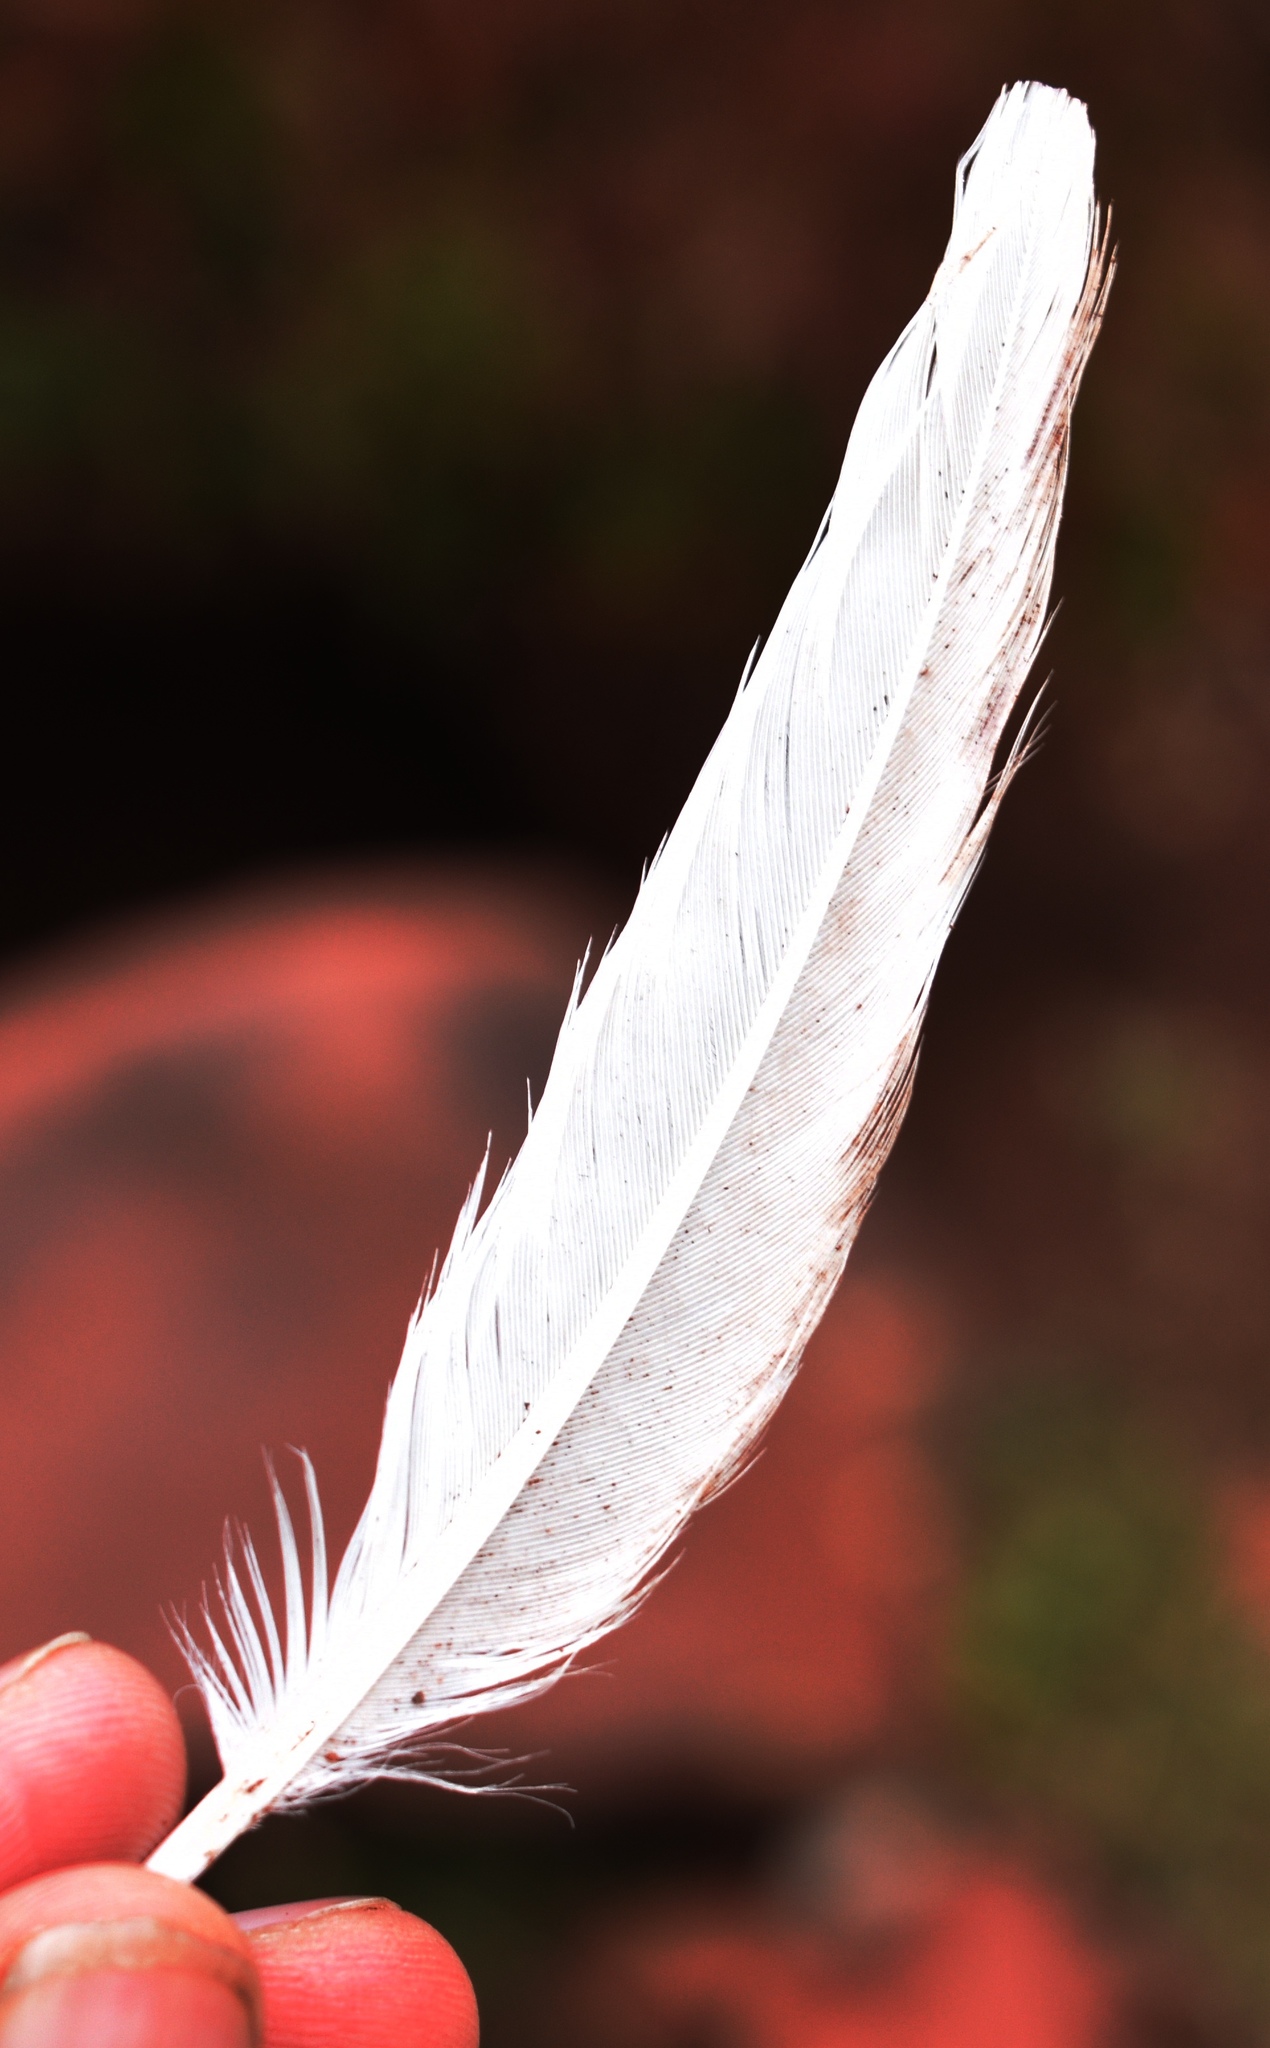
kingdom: Animalia
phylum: Chordata
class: Aves
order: Galliformes
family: Phasianidae
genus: Lagopus
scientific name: Lagopus leucura
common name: White-tailed ptarmigan
